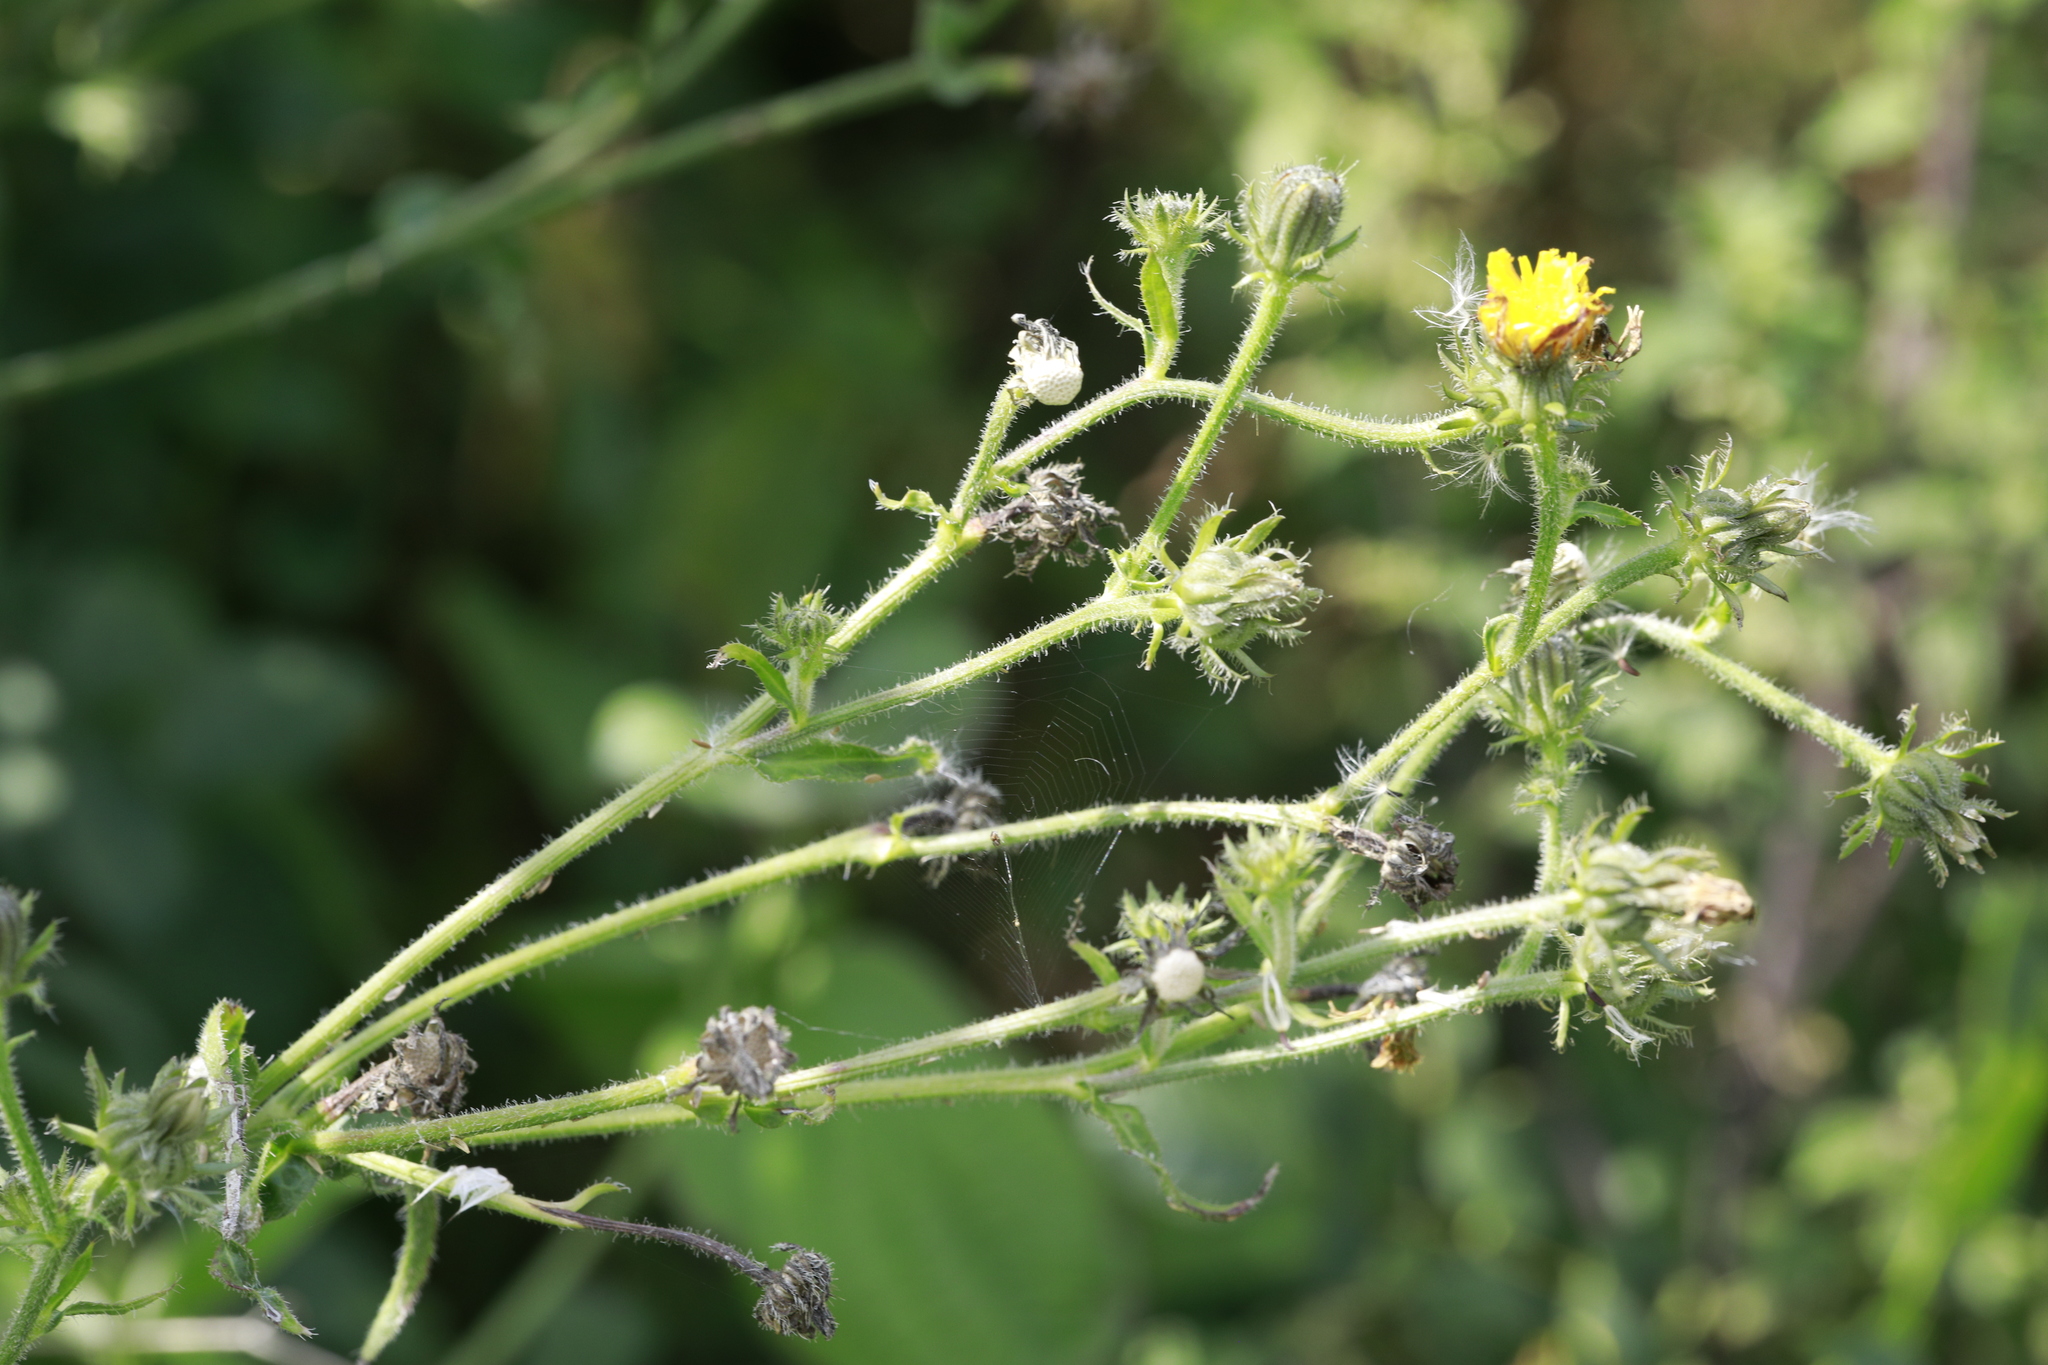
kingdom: Plantae
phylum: Tracheophyta
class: Magnoliopsida
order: Asterales
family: Asteraceae
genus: Picris
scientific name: Picris hieracioides
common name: Hawkweed oxtongue
